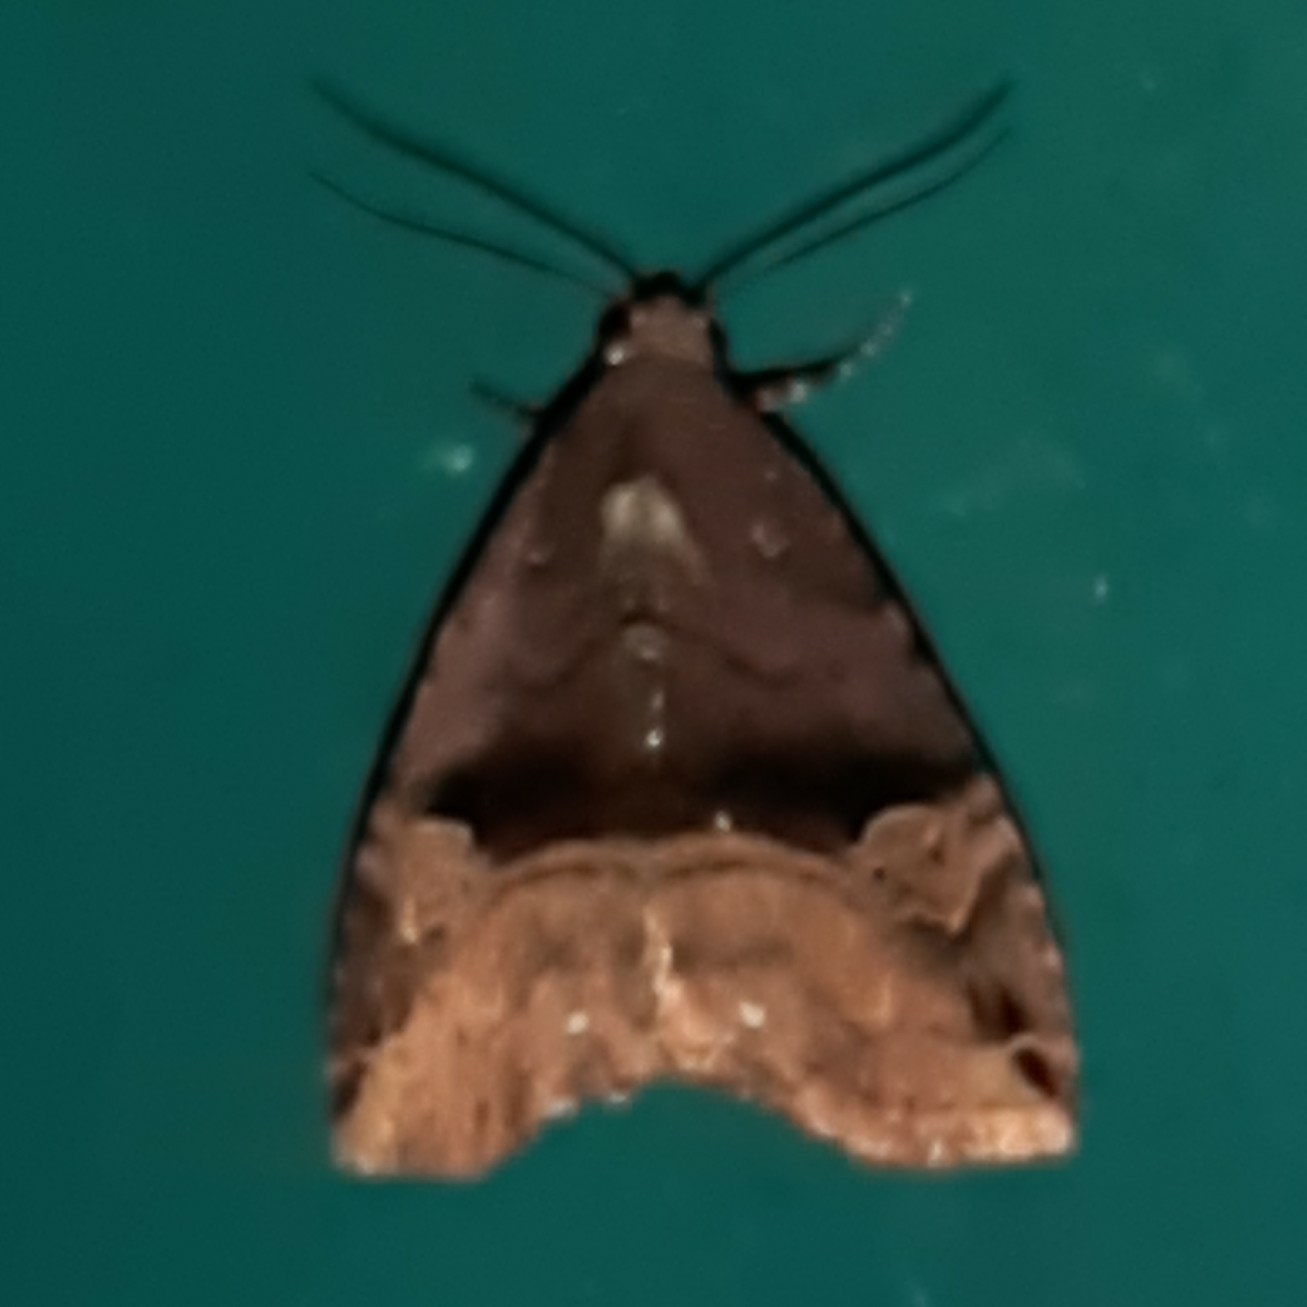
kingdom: Animalia
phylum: Arthropoda
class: Insecta
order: Lepidoptera
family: Noctuidae
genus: Ozarba
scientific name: Ozarba geta
